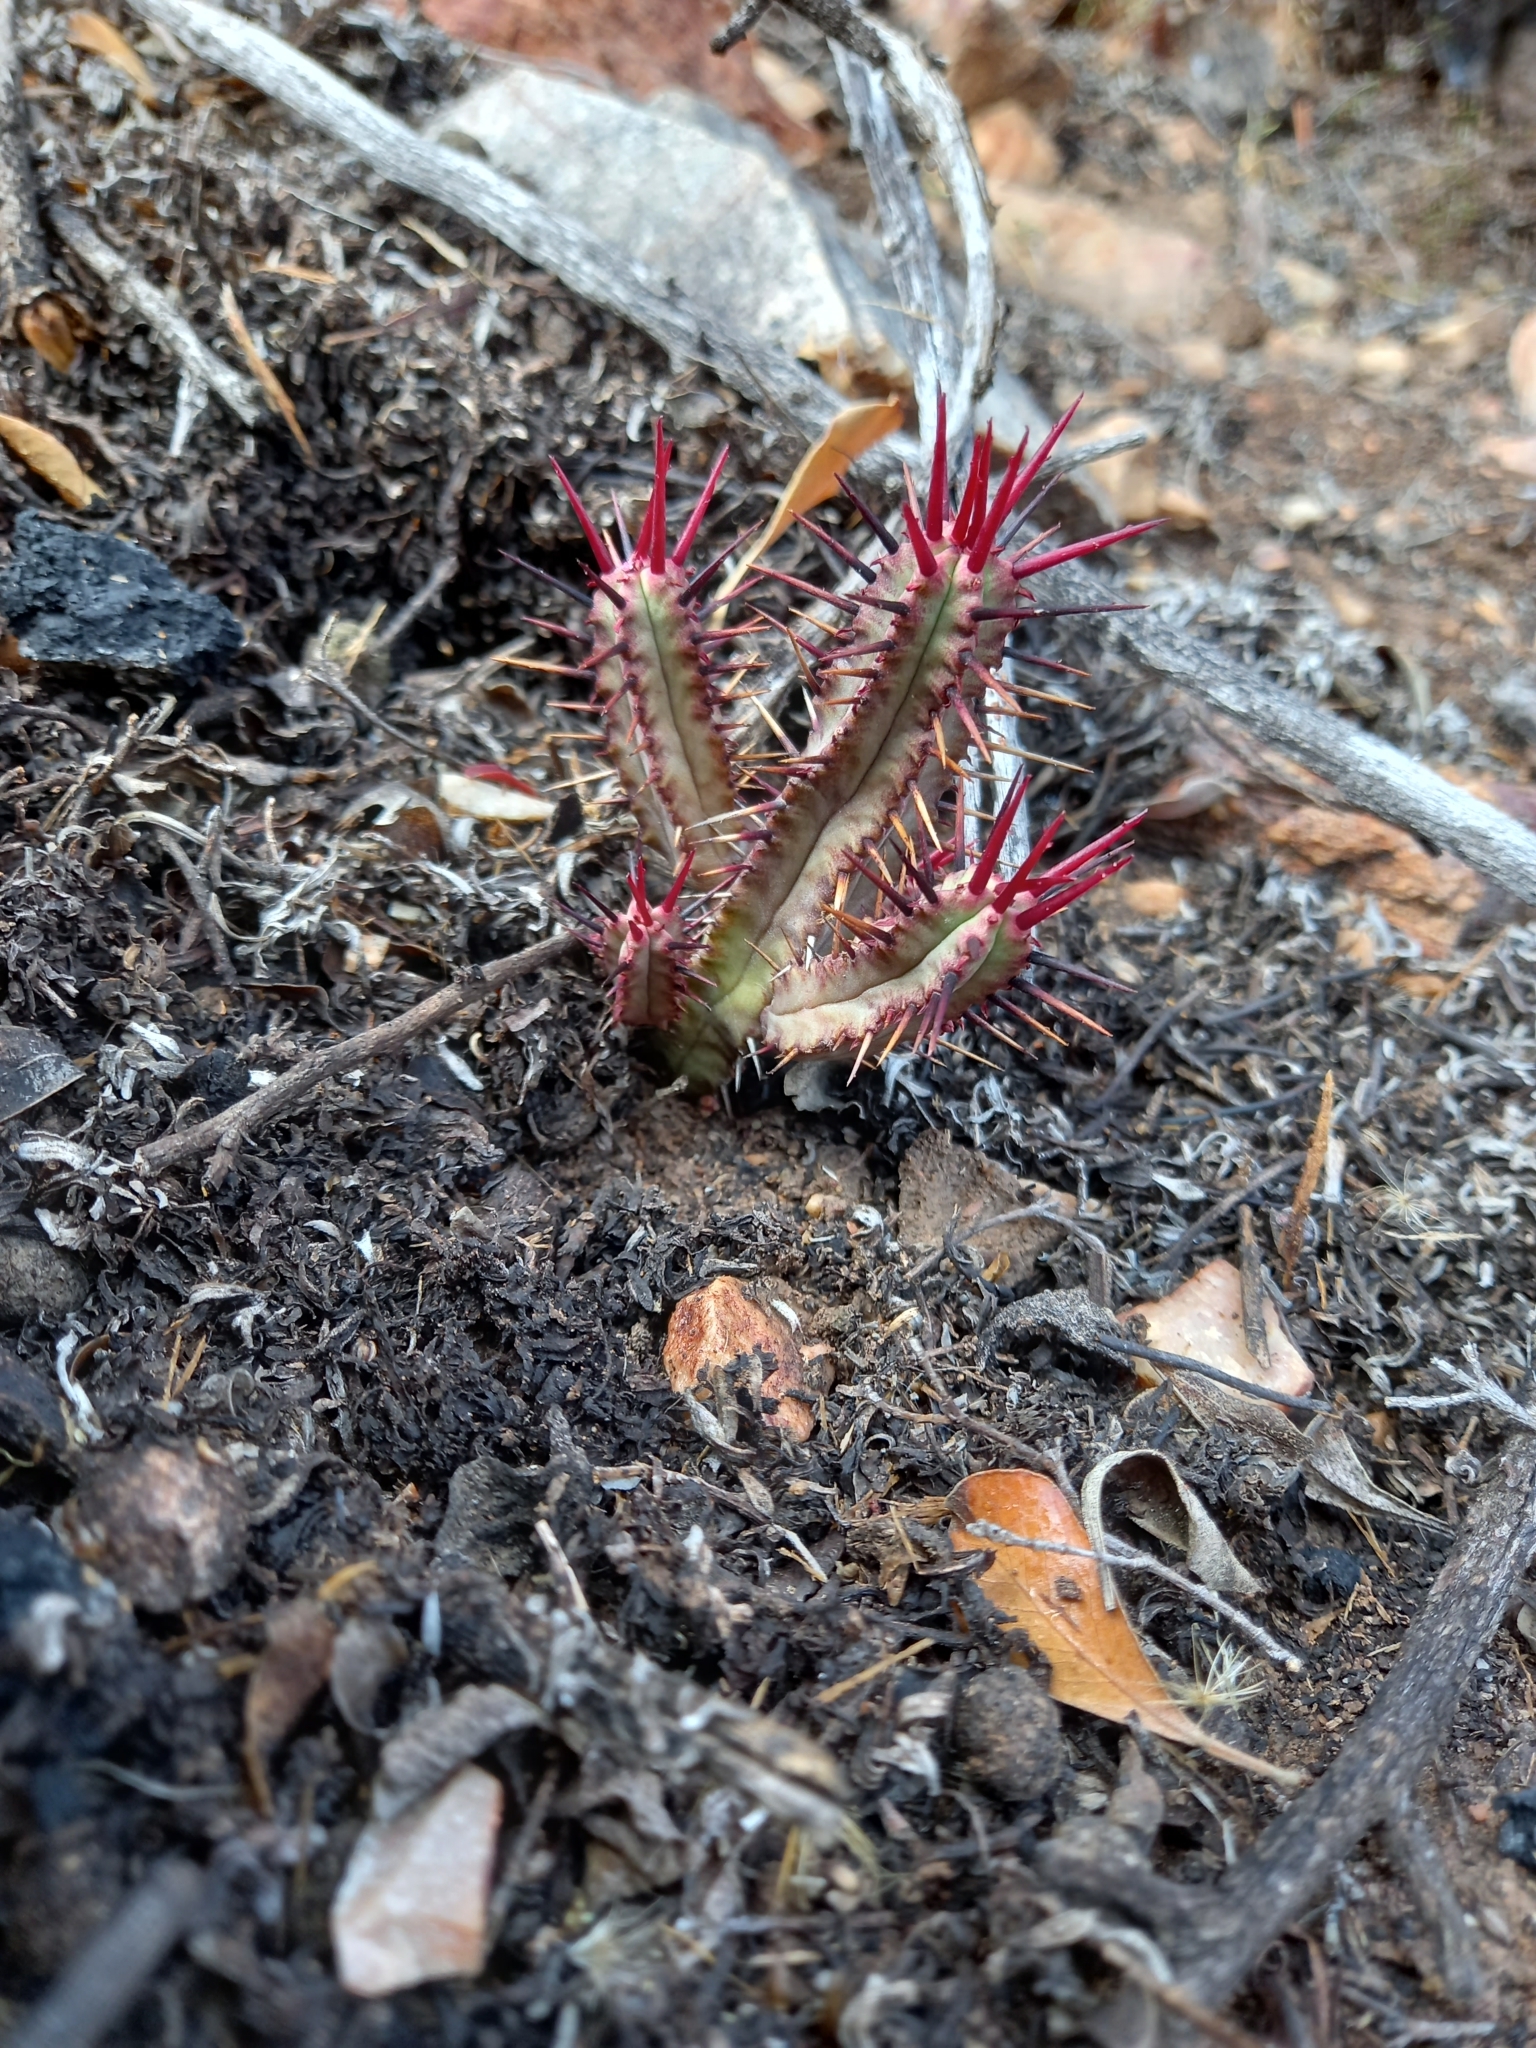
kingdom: Plantae
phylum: Tracheophyta
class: Magnoliopsida
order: Malpighiales
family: Euphorbiaceae
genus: Euphorbia
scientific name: Euphorbia heptagona
